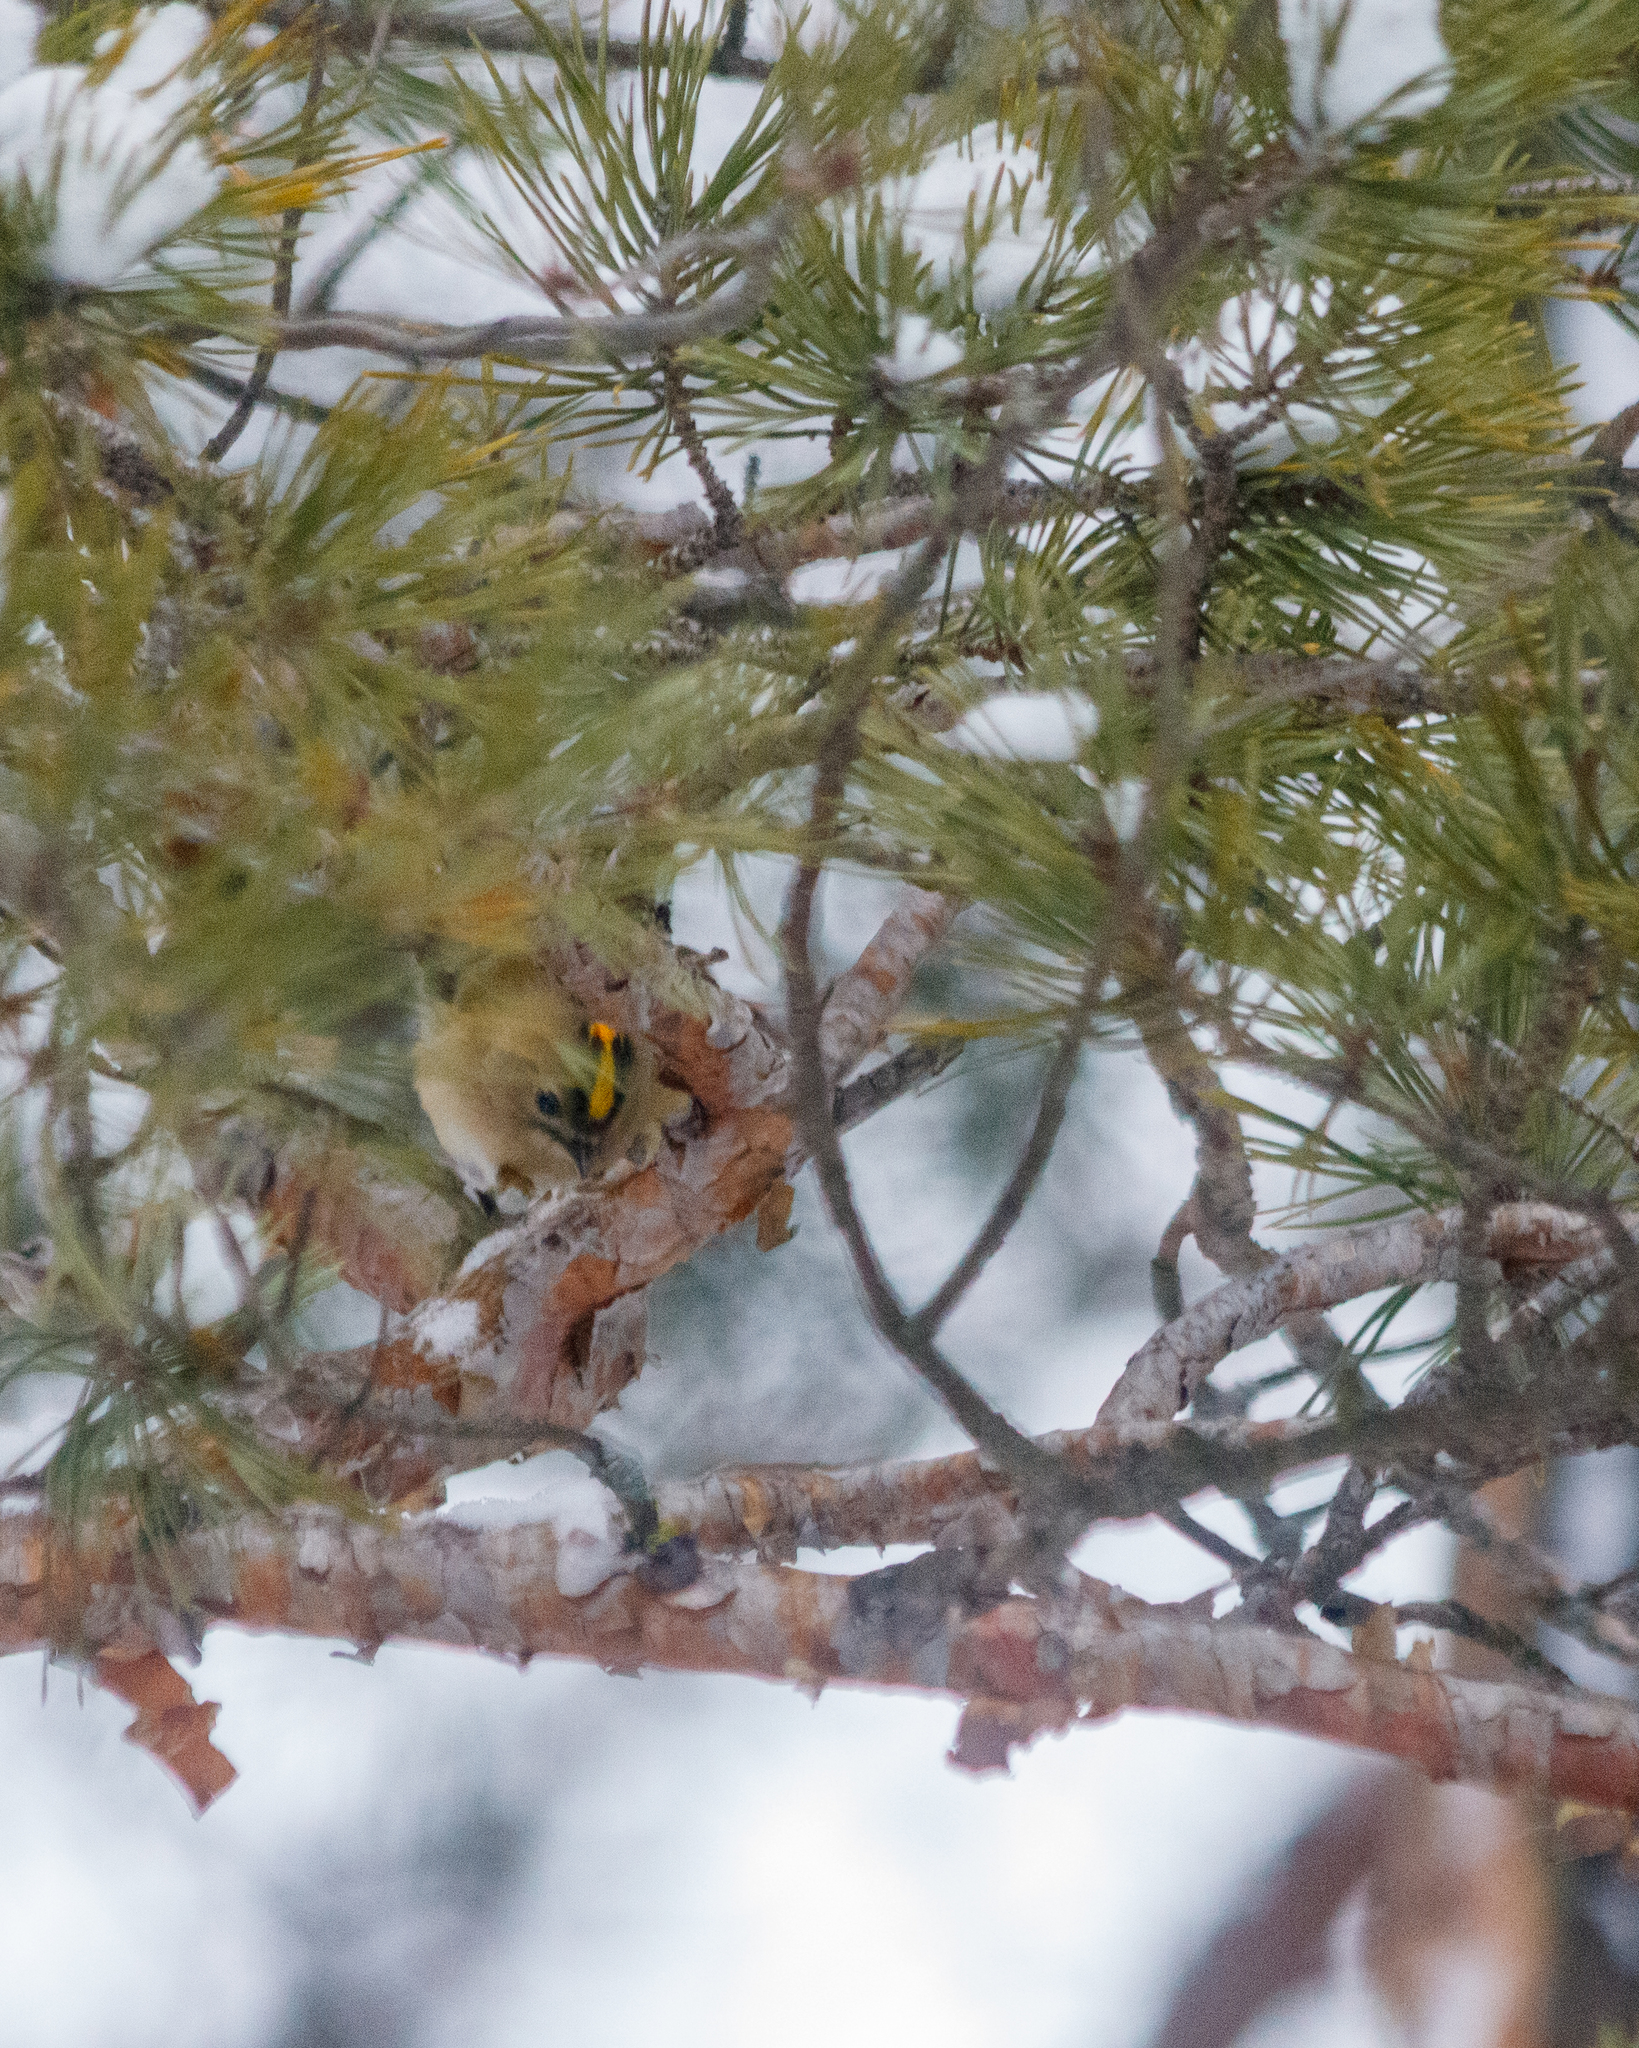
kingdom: Animalia
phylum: Chordata
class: Aves
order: Passeriformes
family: Regulidae
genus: Regulus
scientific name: Regulus regulus
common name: Goldcrest
